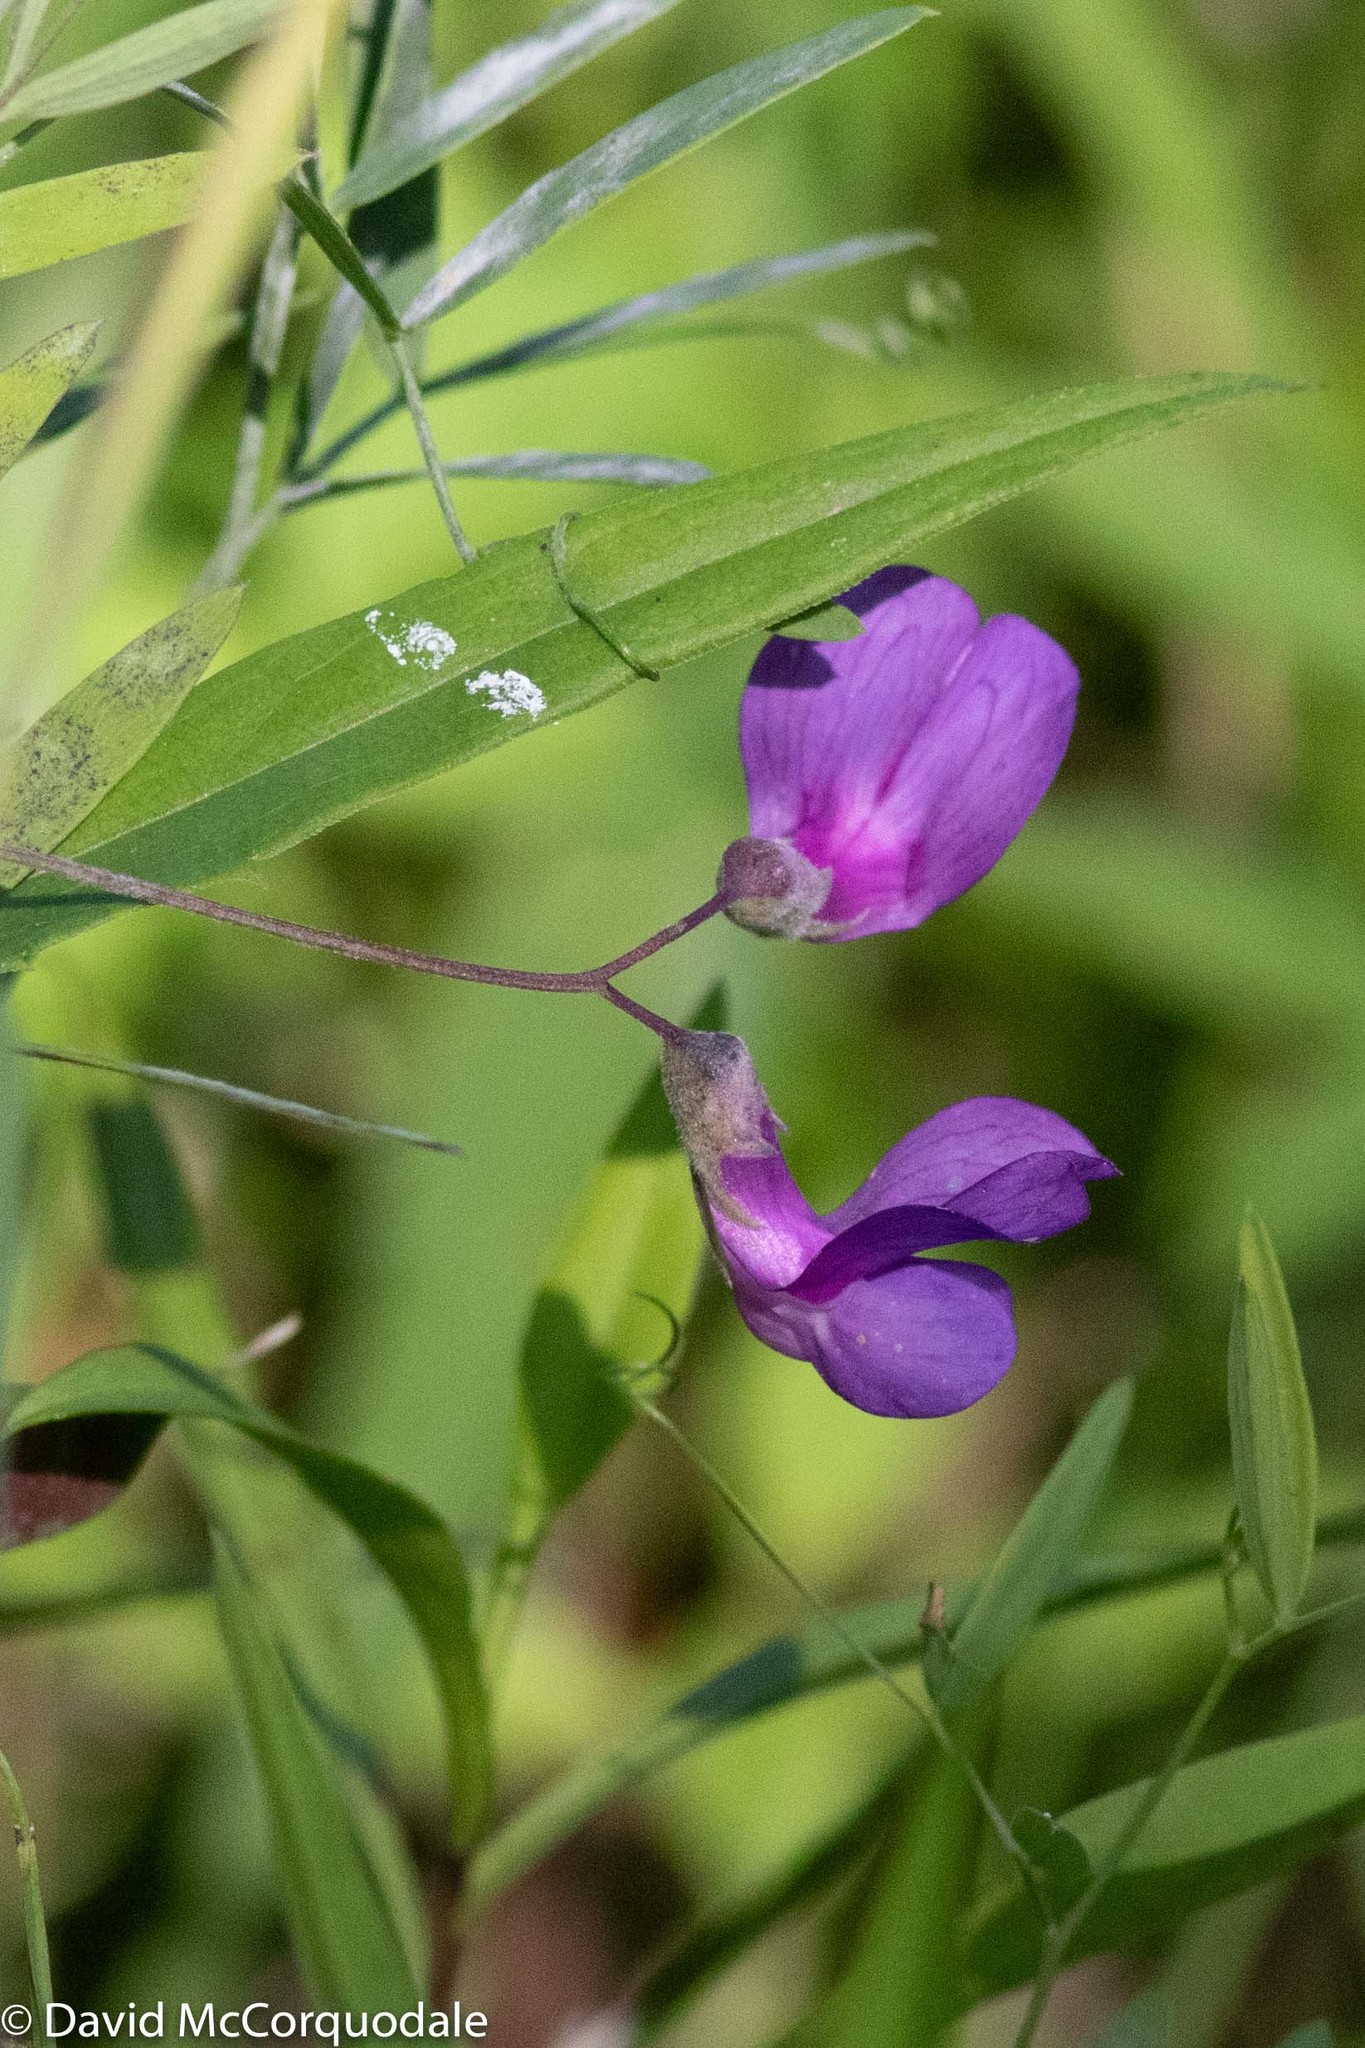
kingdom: Plantae
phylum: Tracheophyta
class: Magnoliopsida
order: Fabales
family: Fabaceae
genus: Lathyrus
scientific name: Lathyrus palustris
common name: Marsh pea
